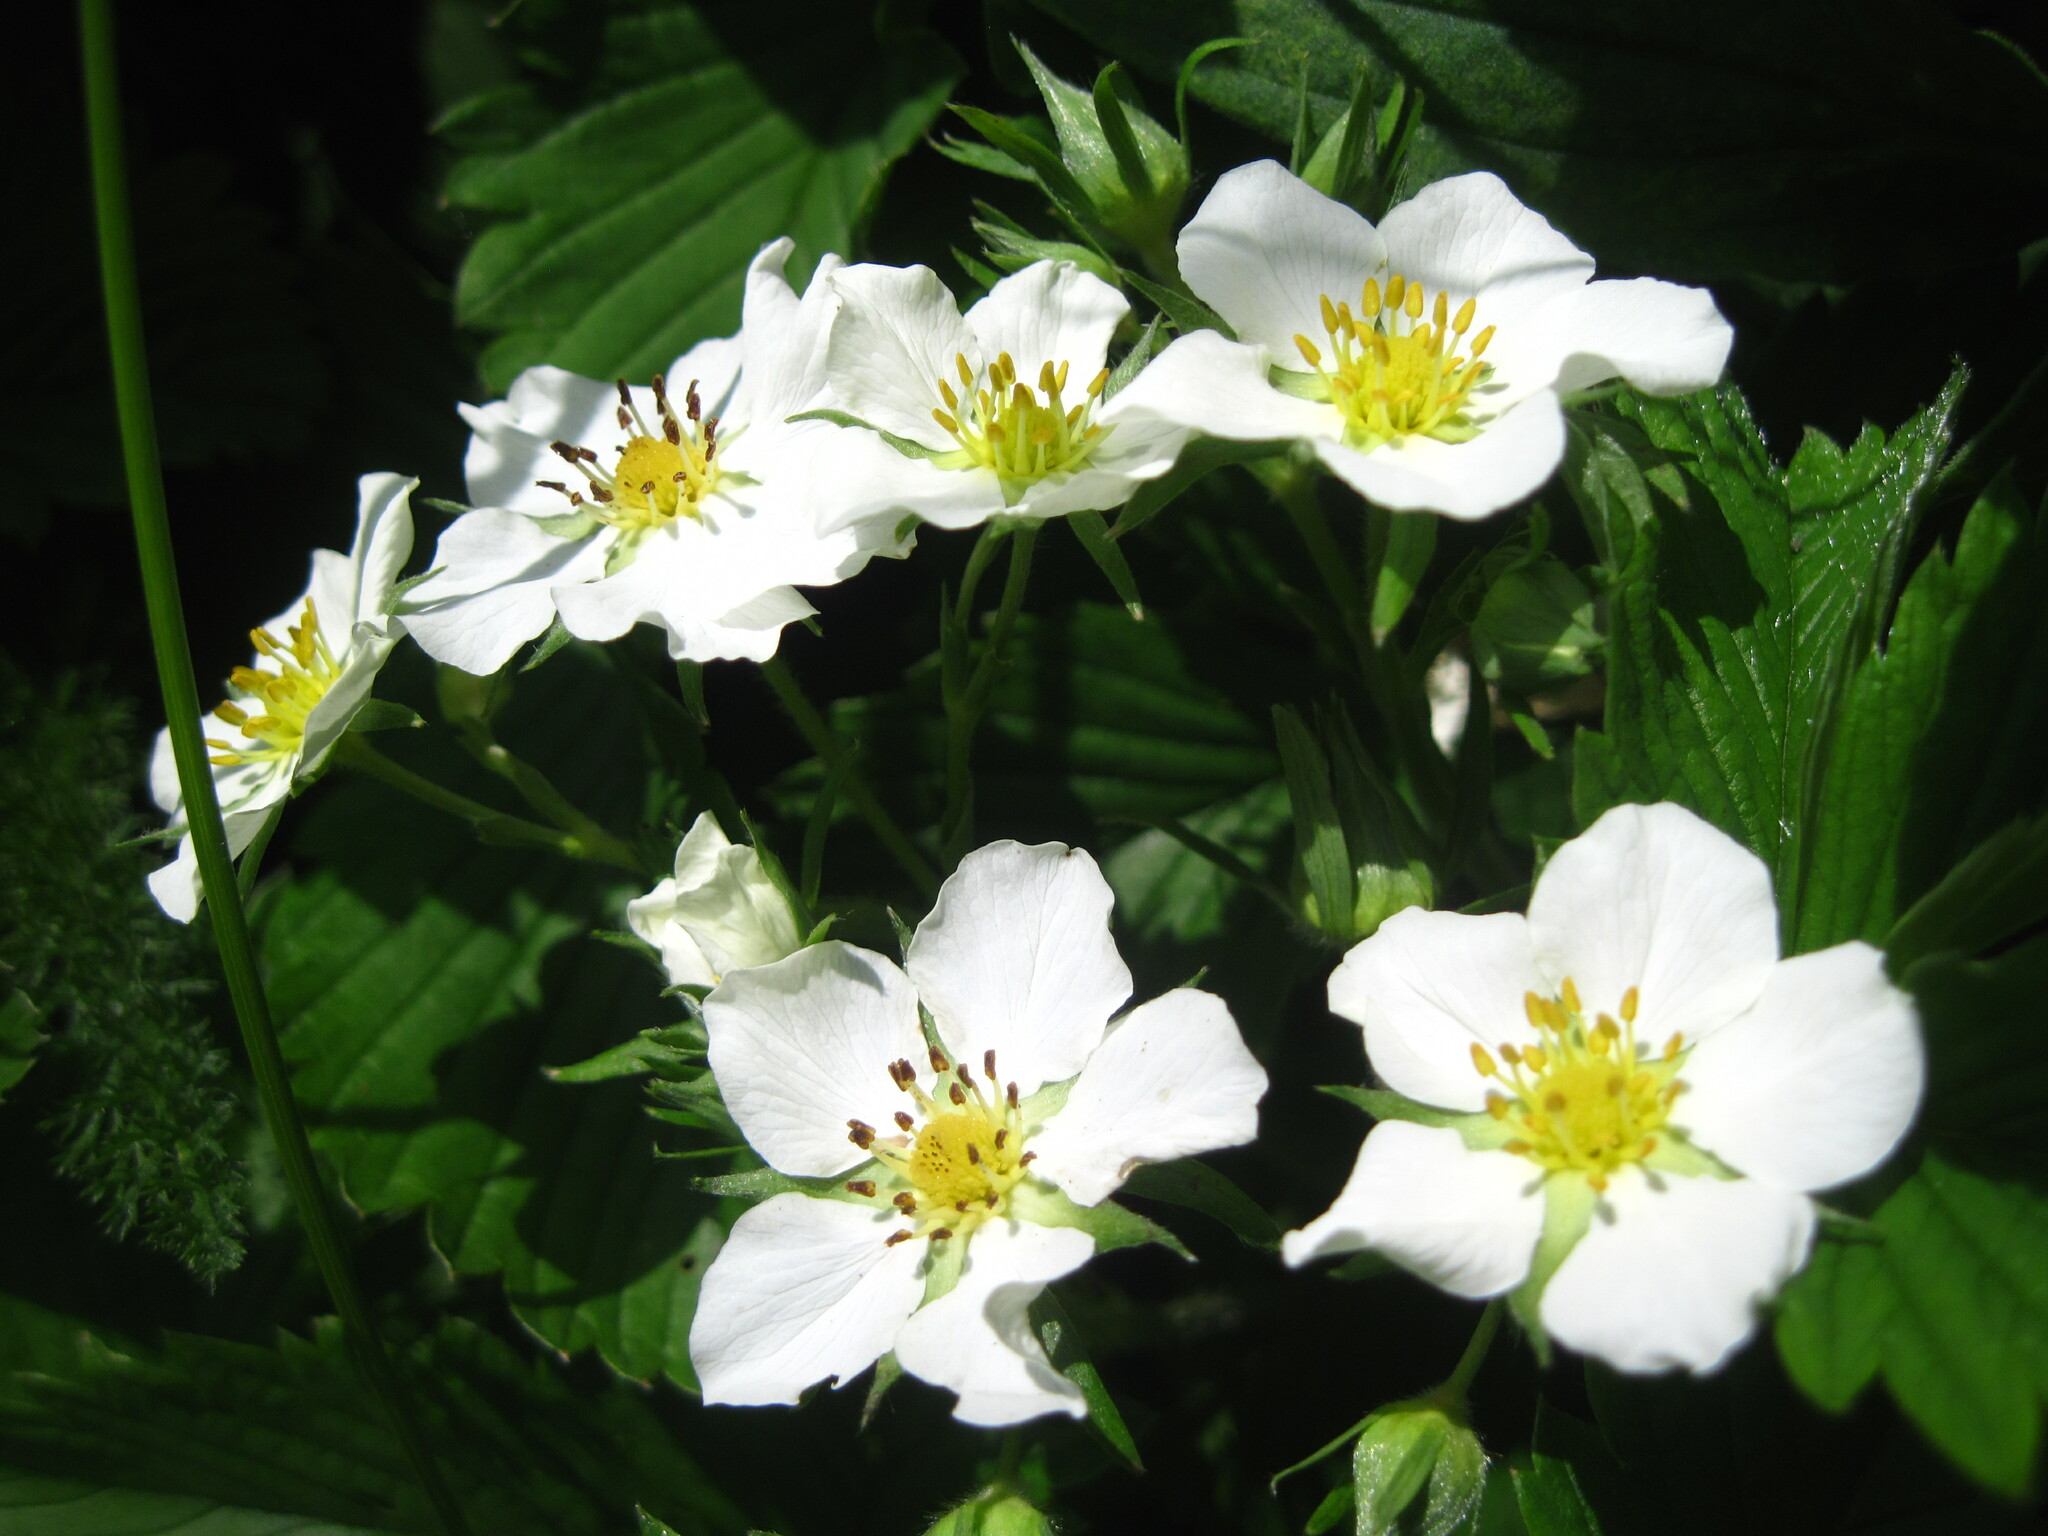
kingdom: Plantae
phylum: Tracheophyta
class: Magnoliopsida
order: Rosales
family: Rosaceae
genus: Fragaria
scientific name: Fragaria viridis
